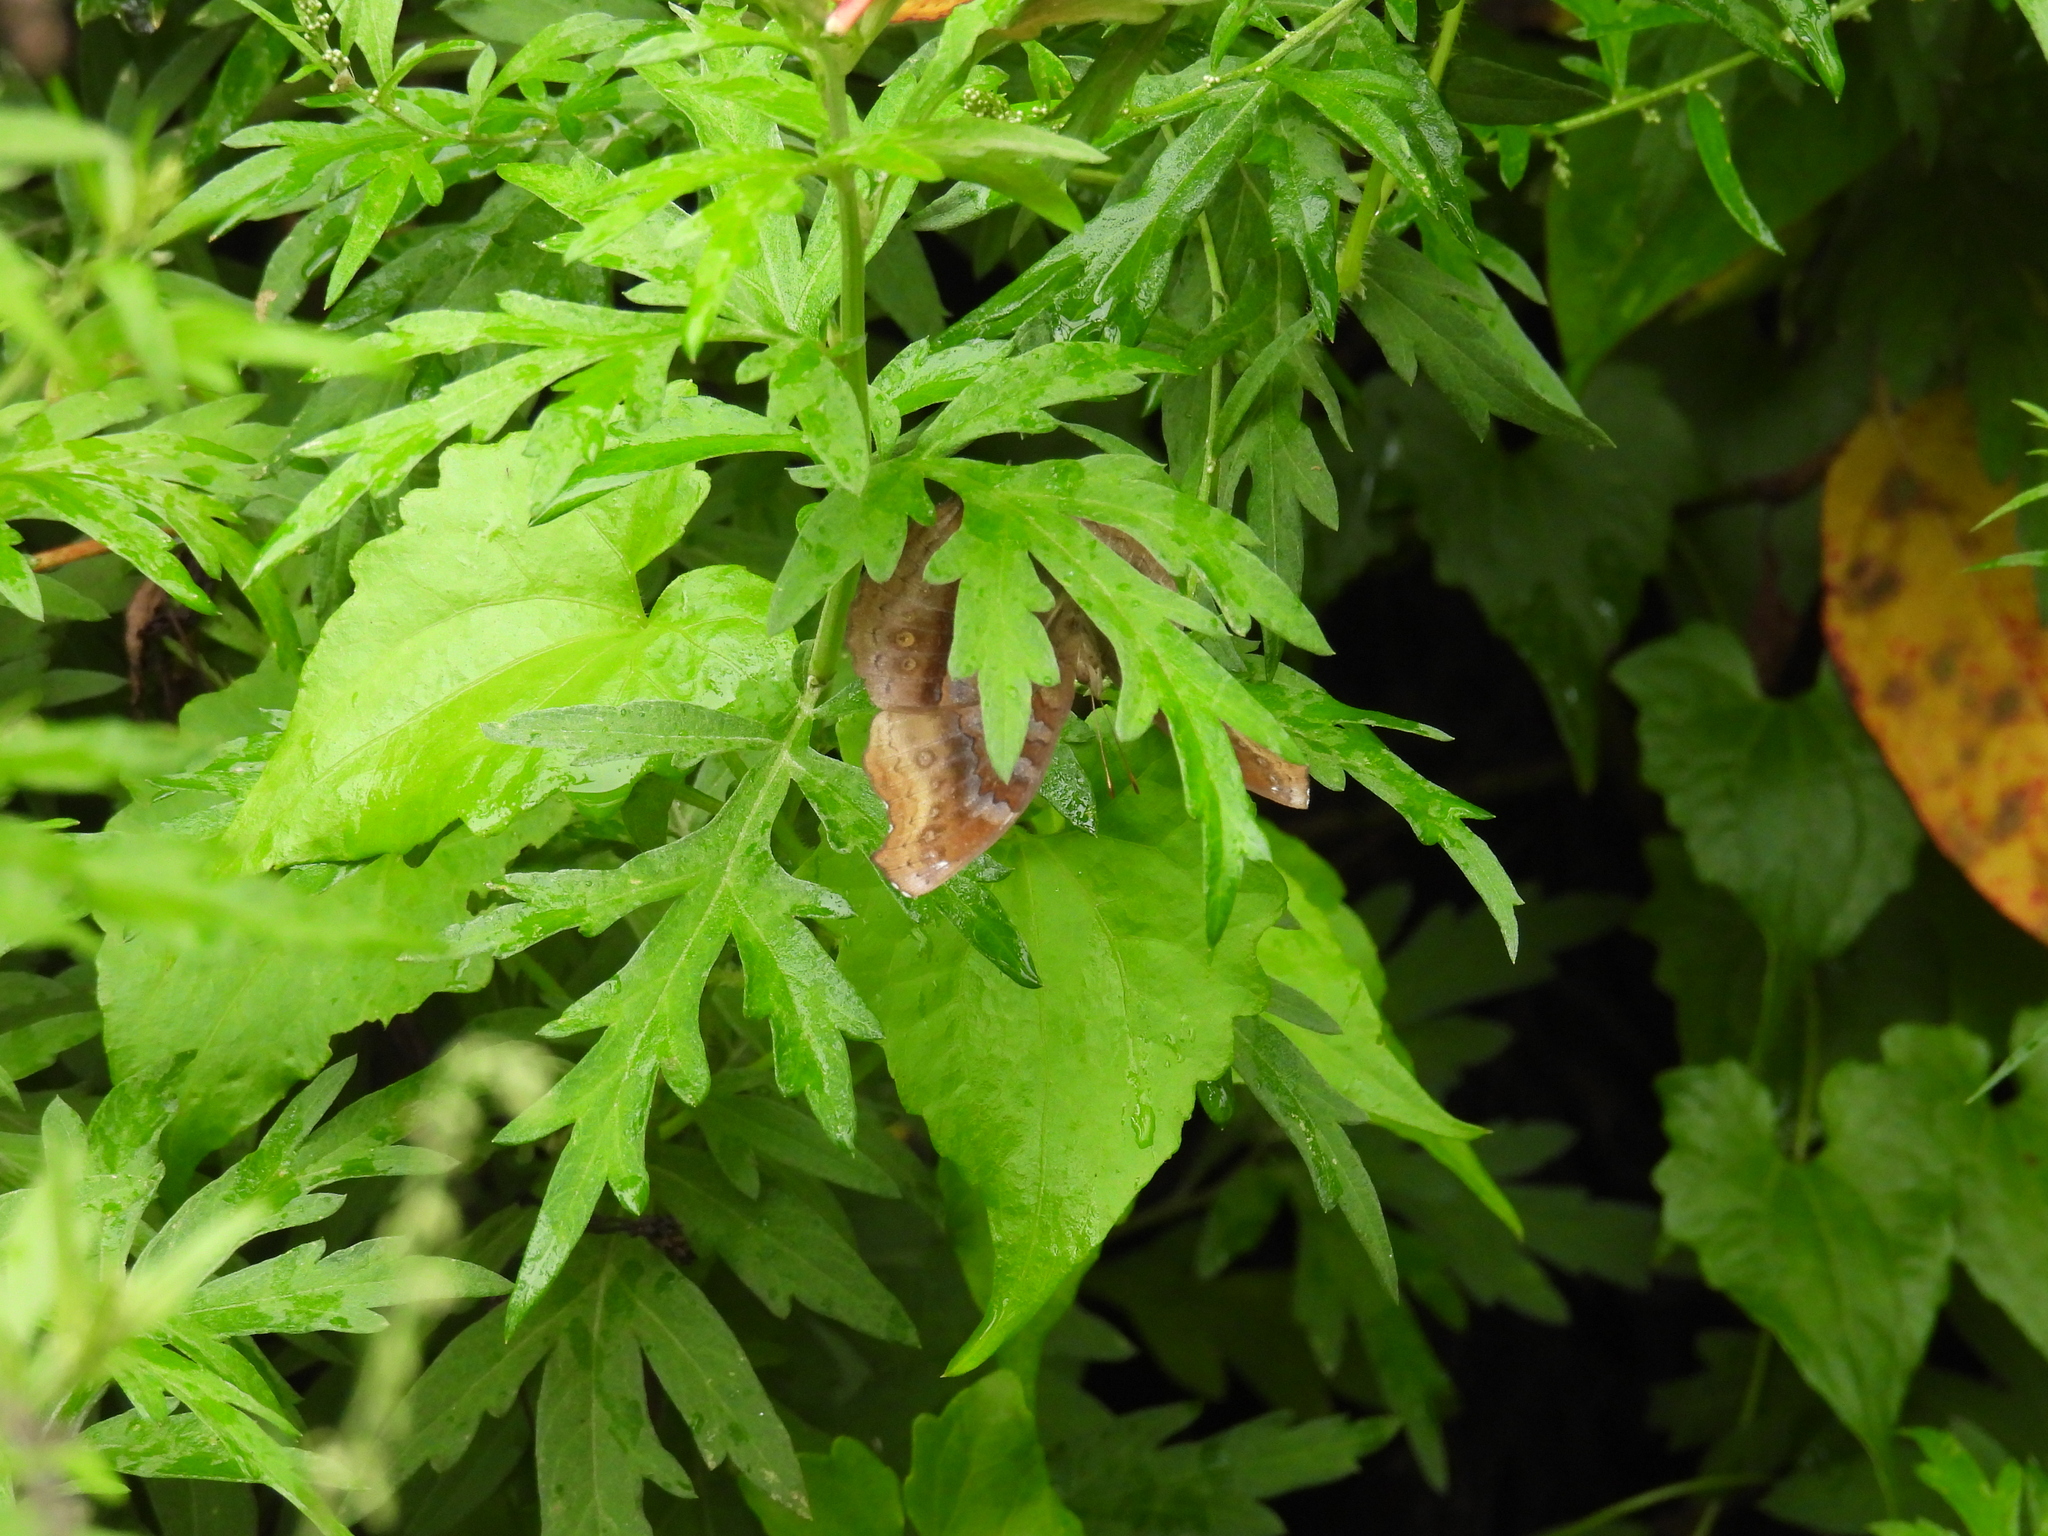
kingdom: Animalia
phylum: Arthropoda
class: Insecta
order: Lepidoptera
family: Nymphalidae
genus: Junonia
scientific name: Junonia iphita
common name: Chocolate pansy
